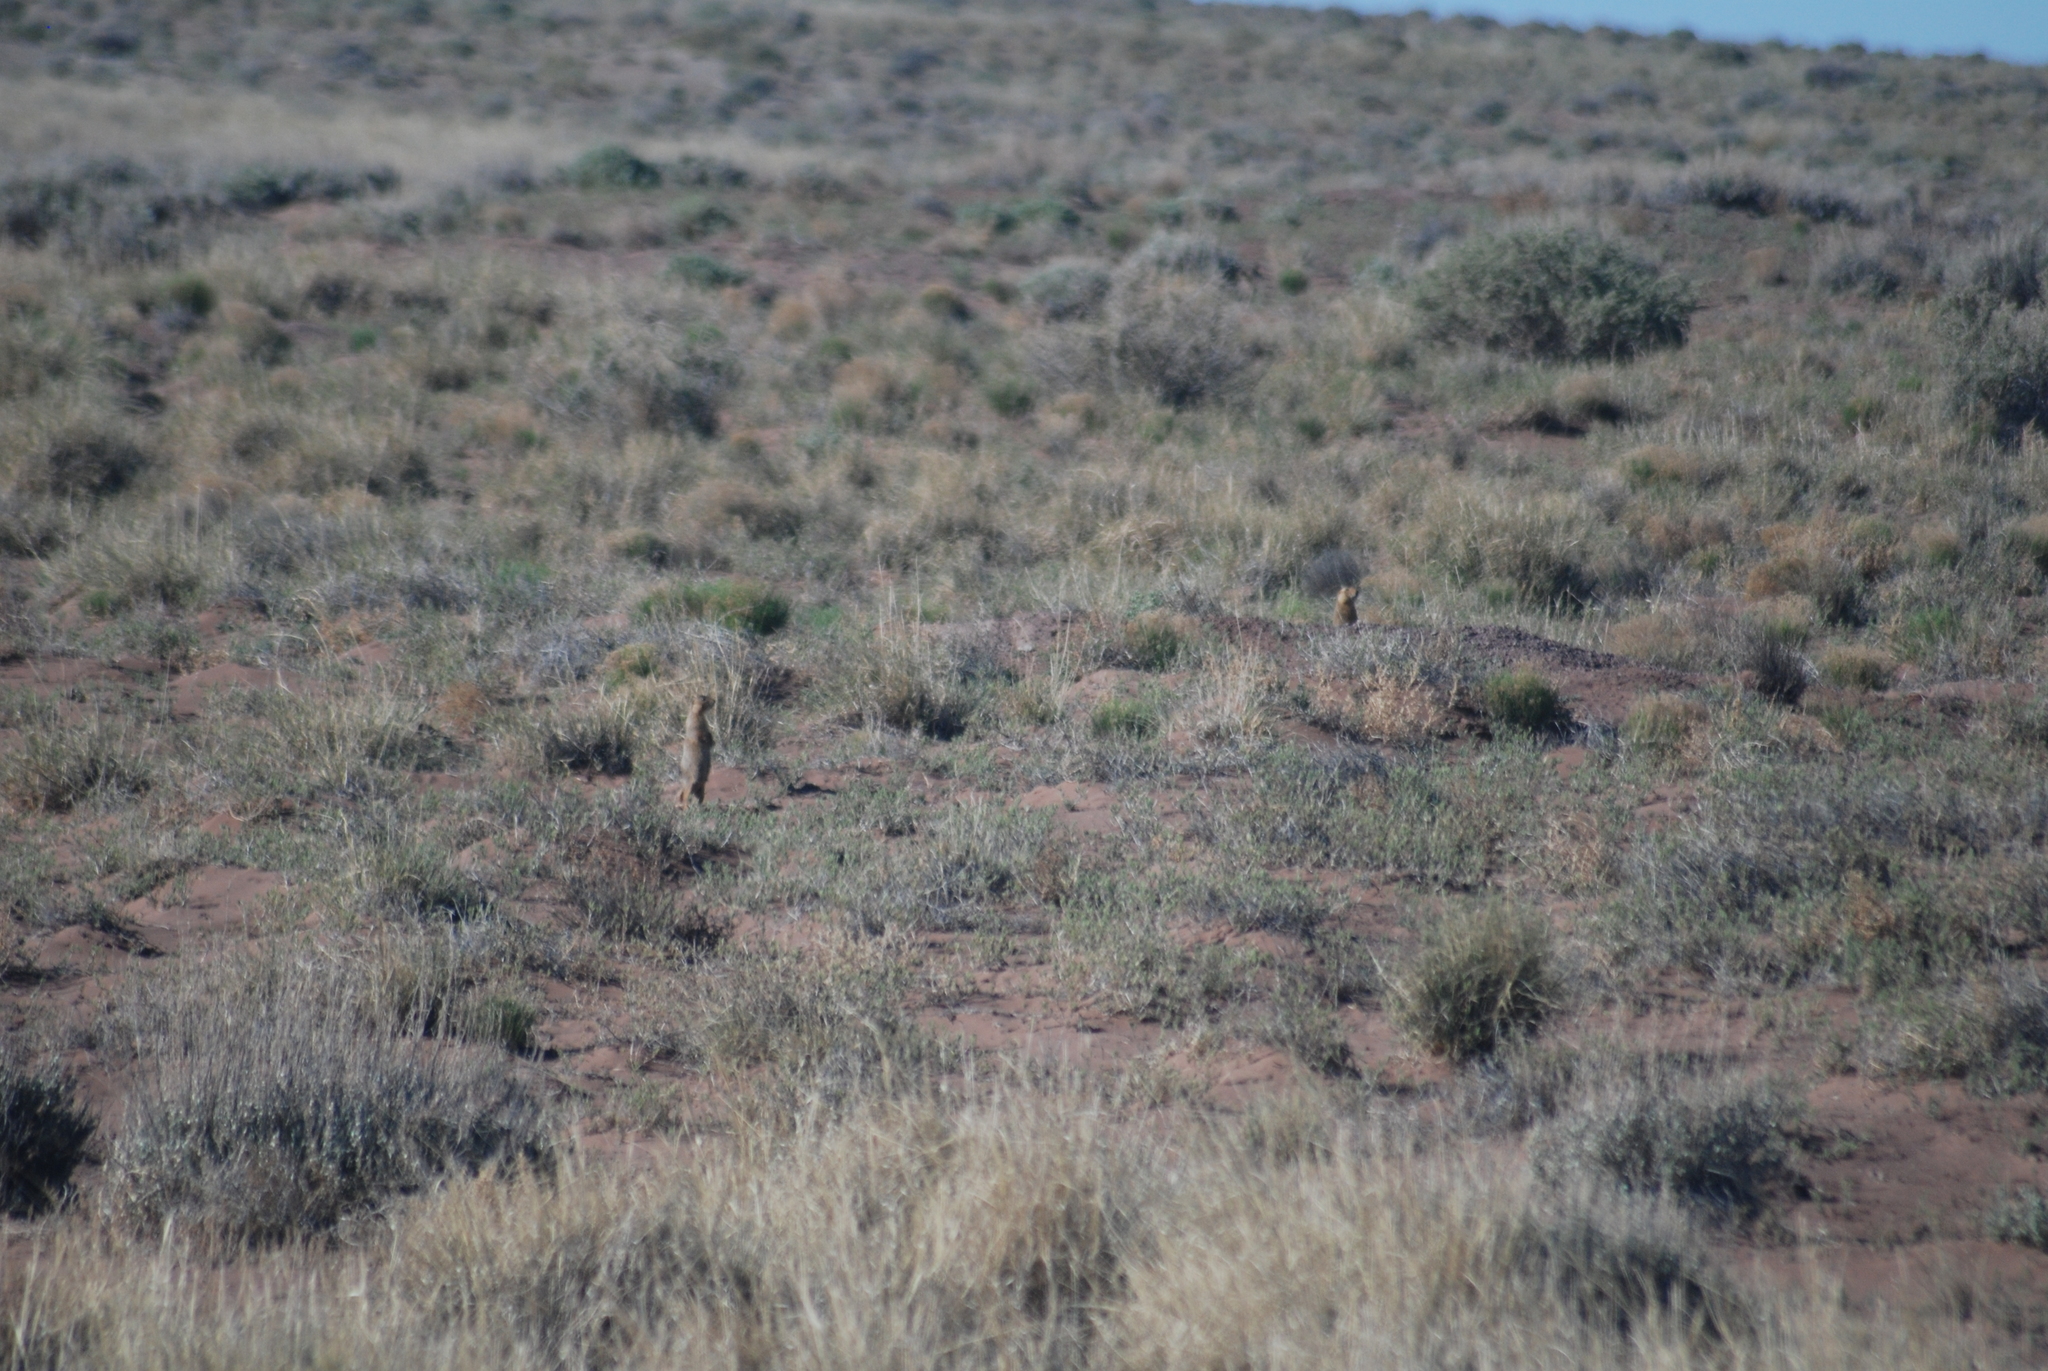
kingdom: Animalia
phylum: Chordata
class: Mammalia
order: Rodentia
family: Sciuridae
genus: Cynomys
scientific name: Cynomys gunnisoni
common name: Gunnison's prairie dog
